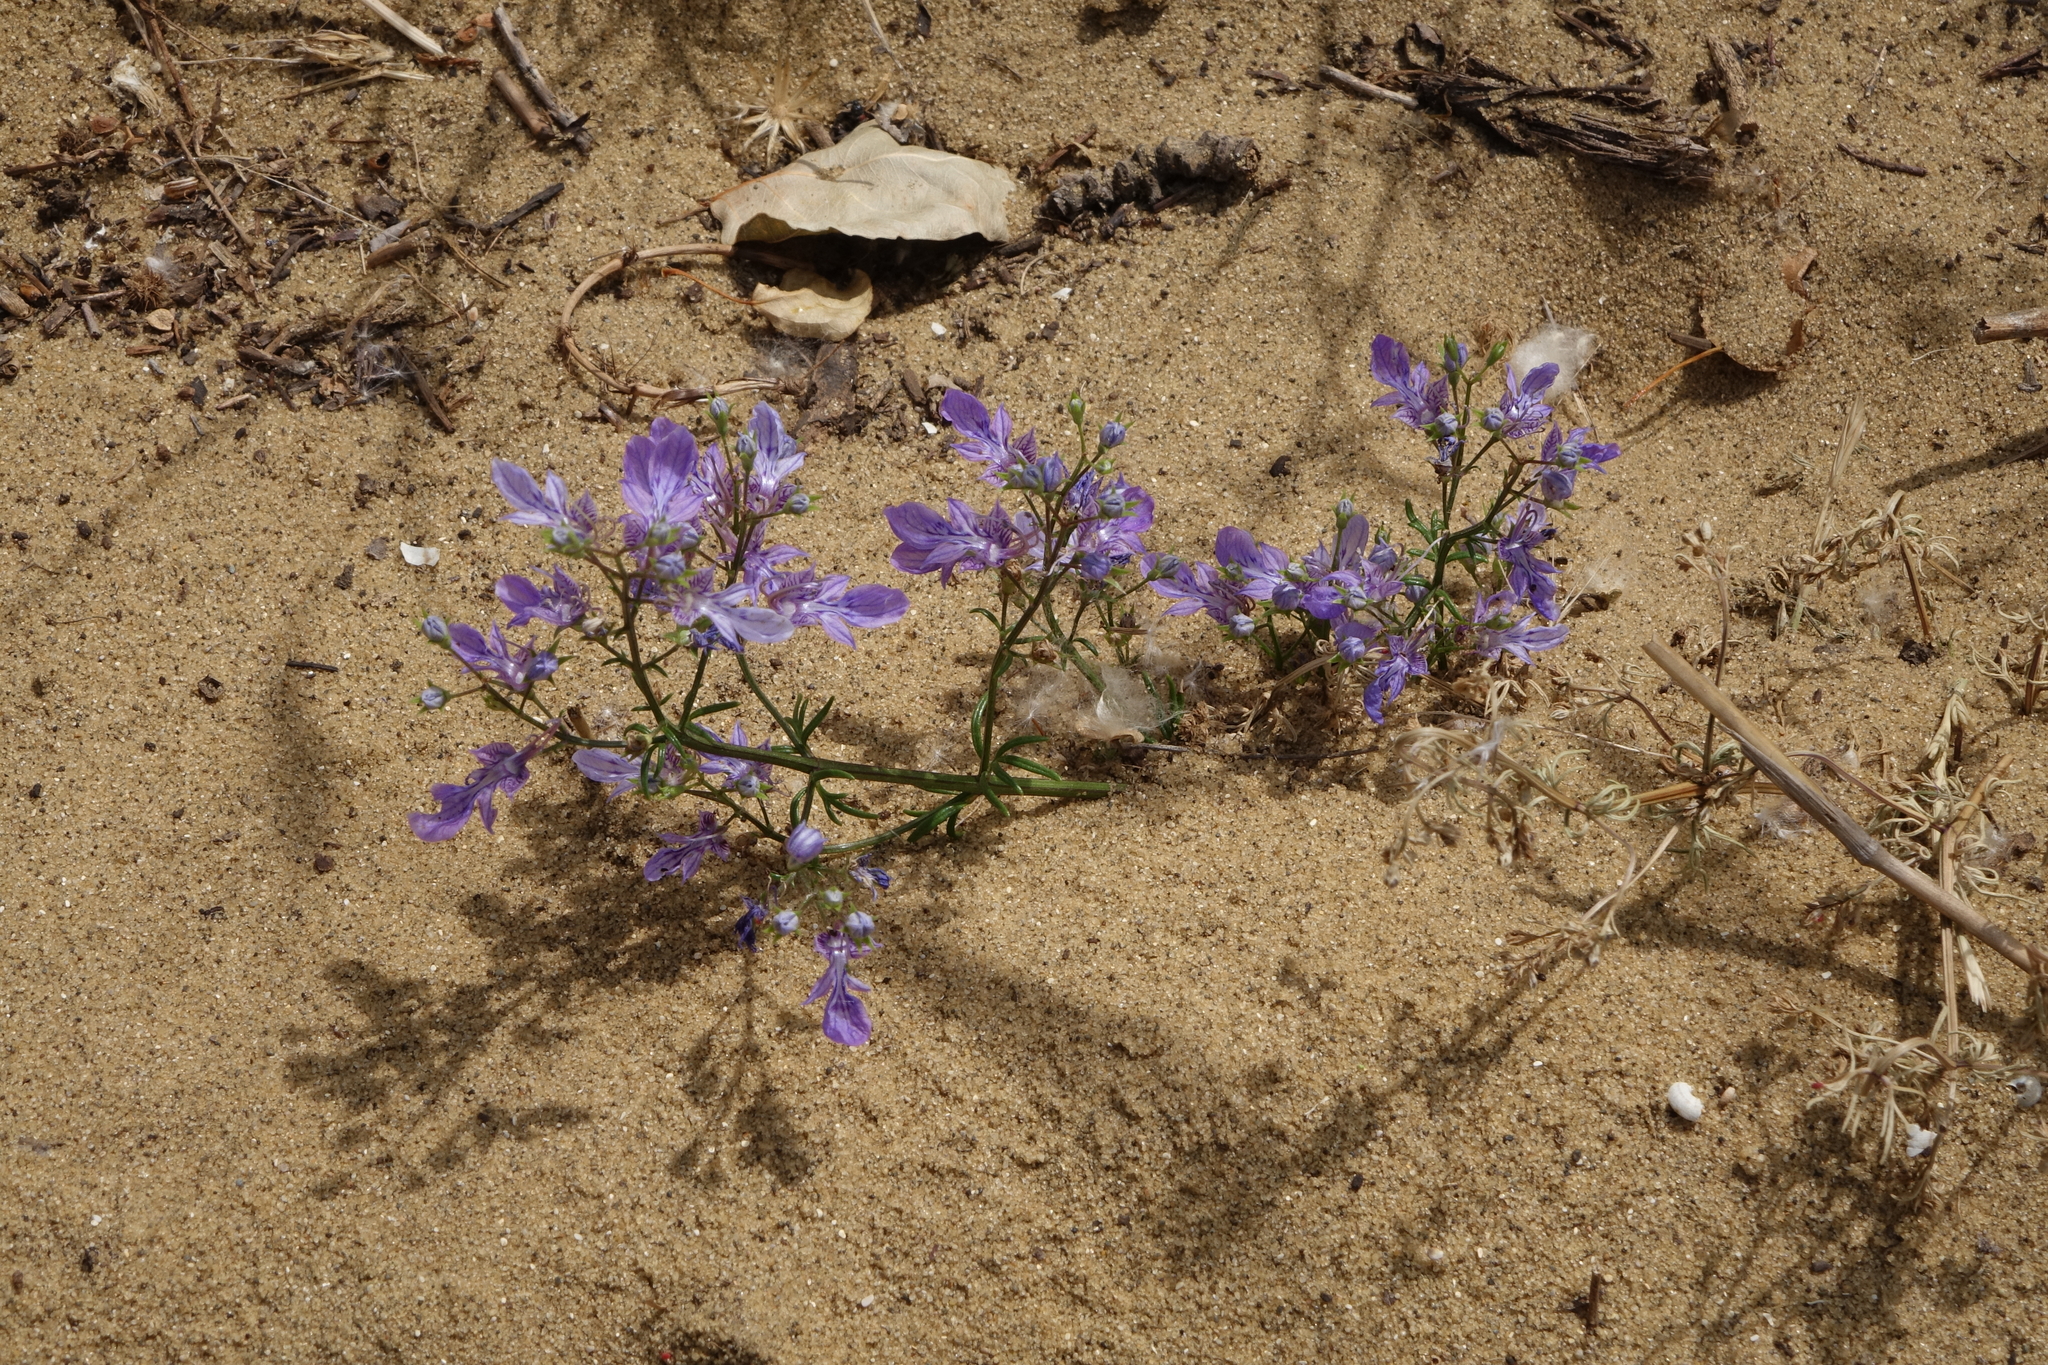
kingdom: Plantae
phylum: Tracheophyta
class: Magnoliopsida
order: Lamiales
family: Lamiaceae
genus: Teucrium
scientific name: Teucrium orientale
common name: Oriental germander
